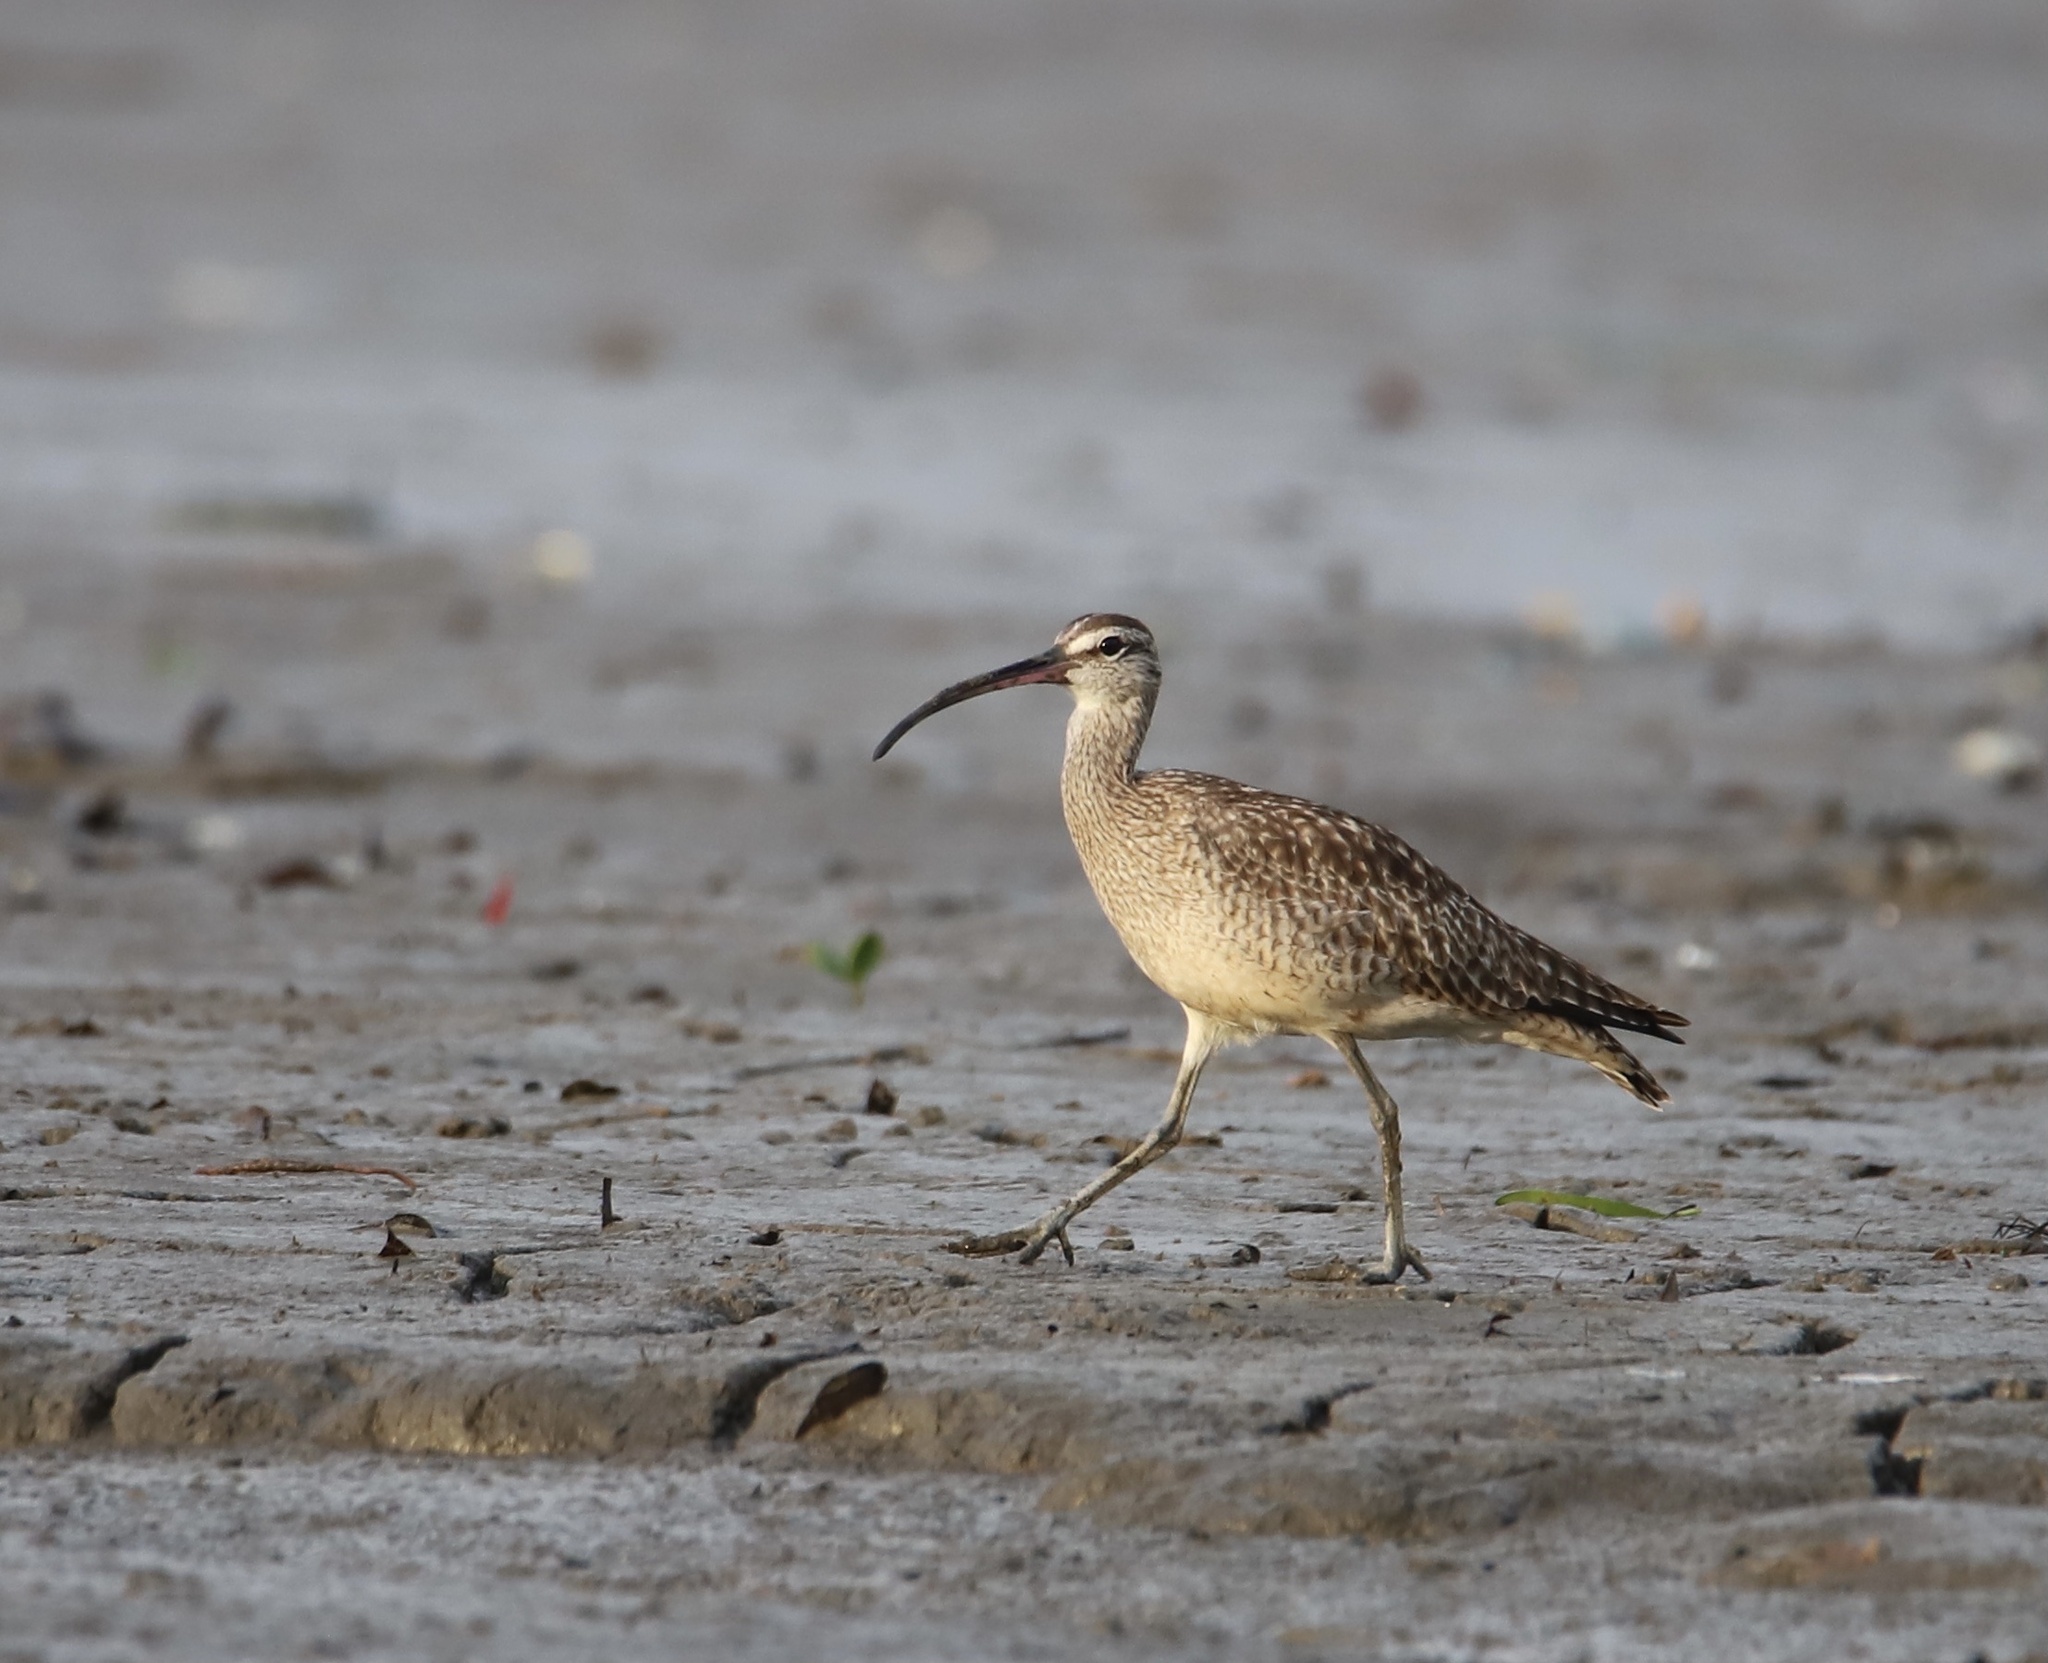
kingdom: Animalia
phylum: Chordata
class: Aves
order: Charadriiformes
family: Scolopacidae
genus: Numenius
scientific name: Numenius phaeopus
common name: Whimbrel
